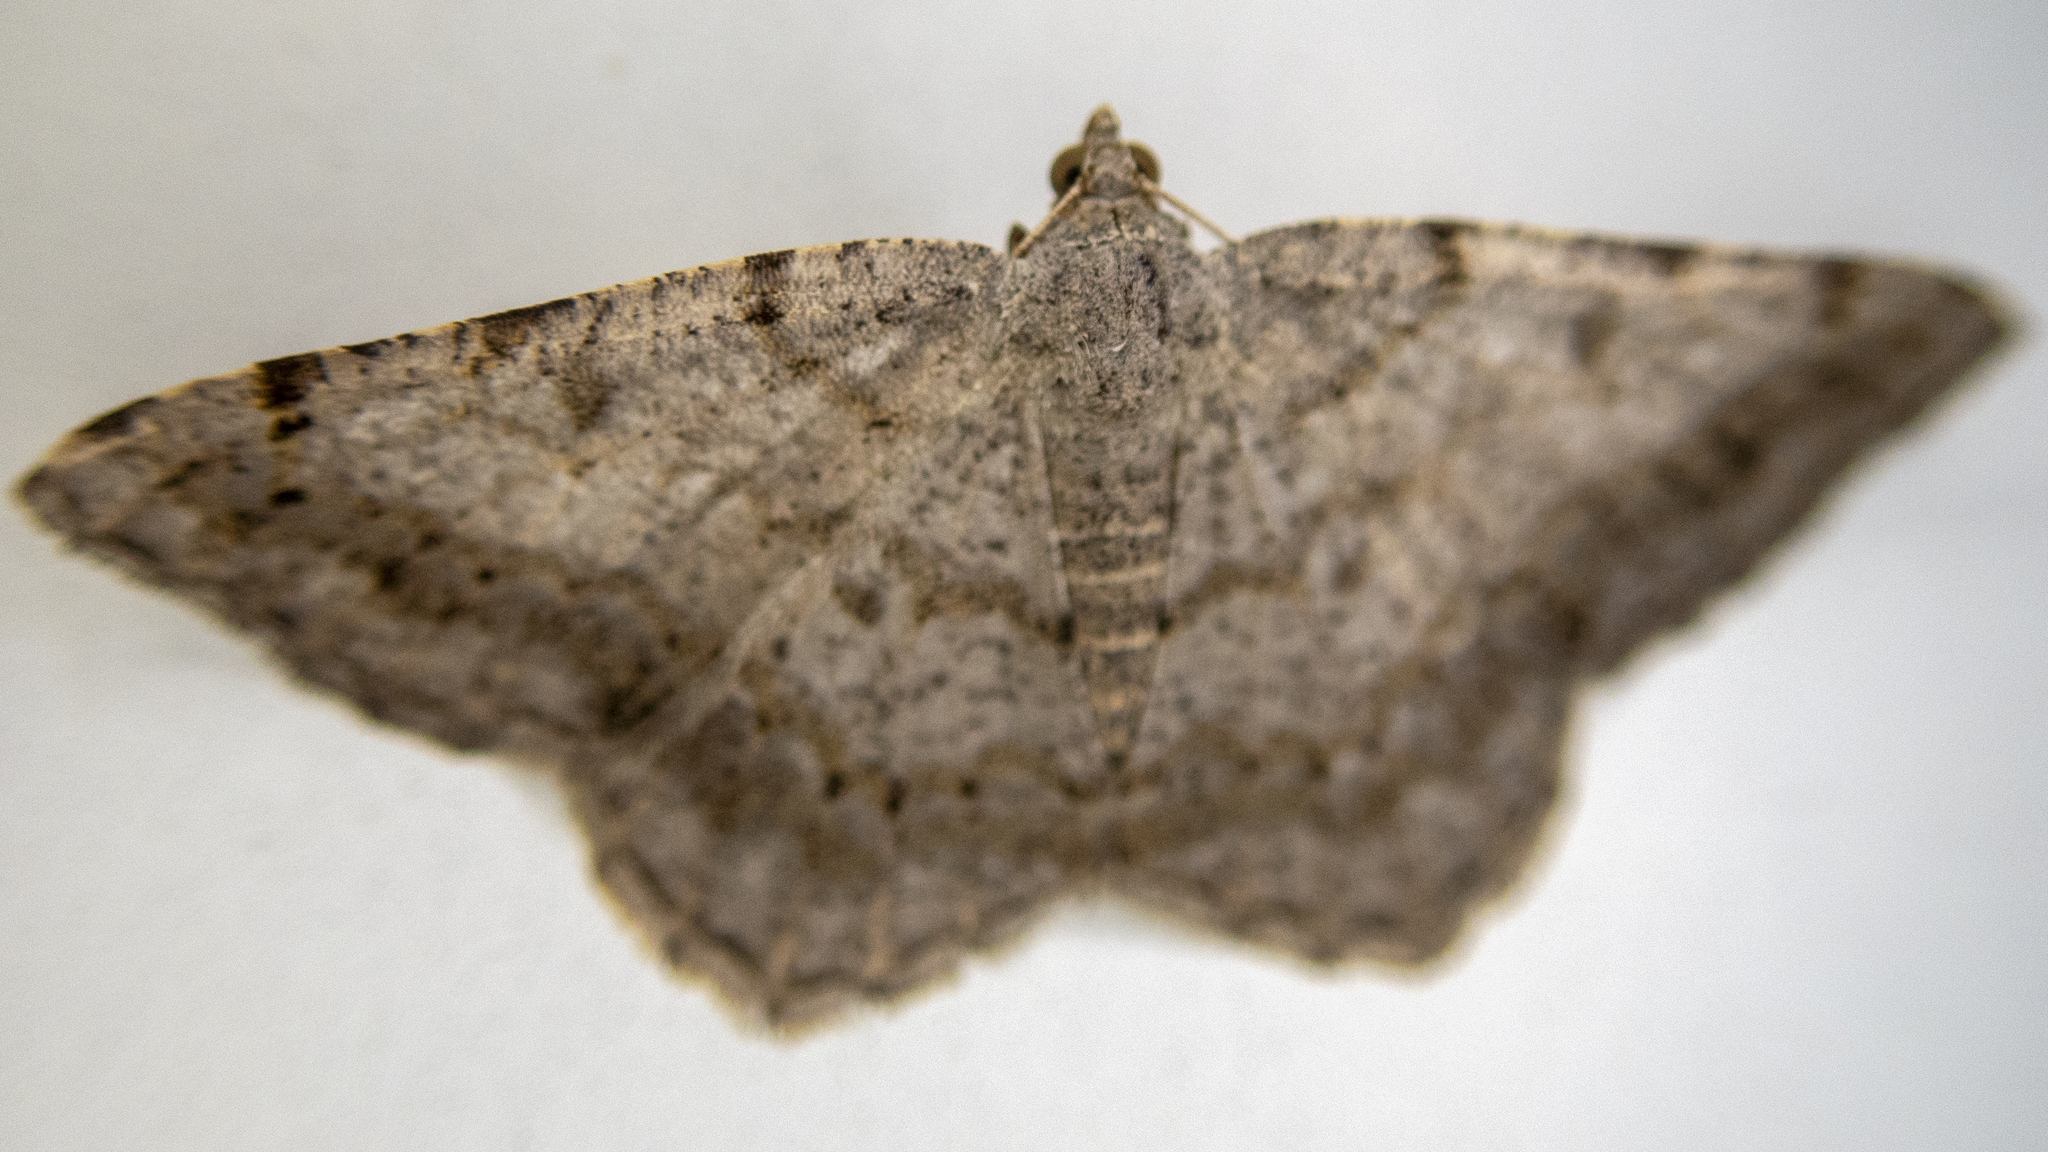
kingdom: Animalia
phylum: Arthropoda
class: Insecta
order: Lepidoptera
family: Geometridae
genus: Digrammia
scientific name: Digrammia ocellinata
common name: Faint-spotted angle
